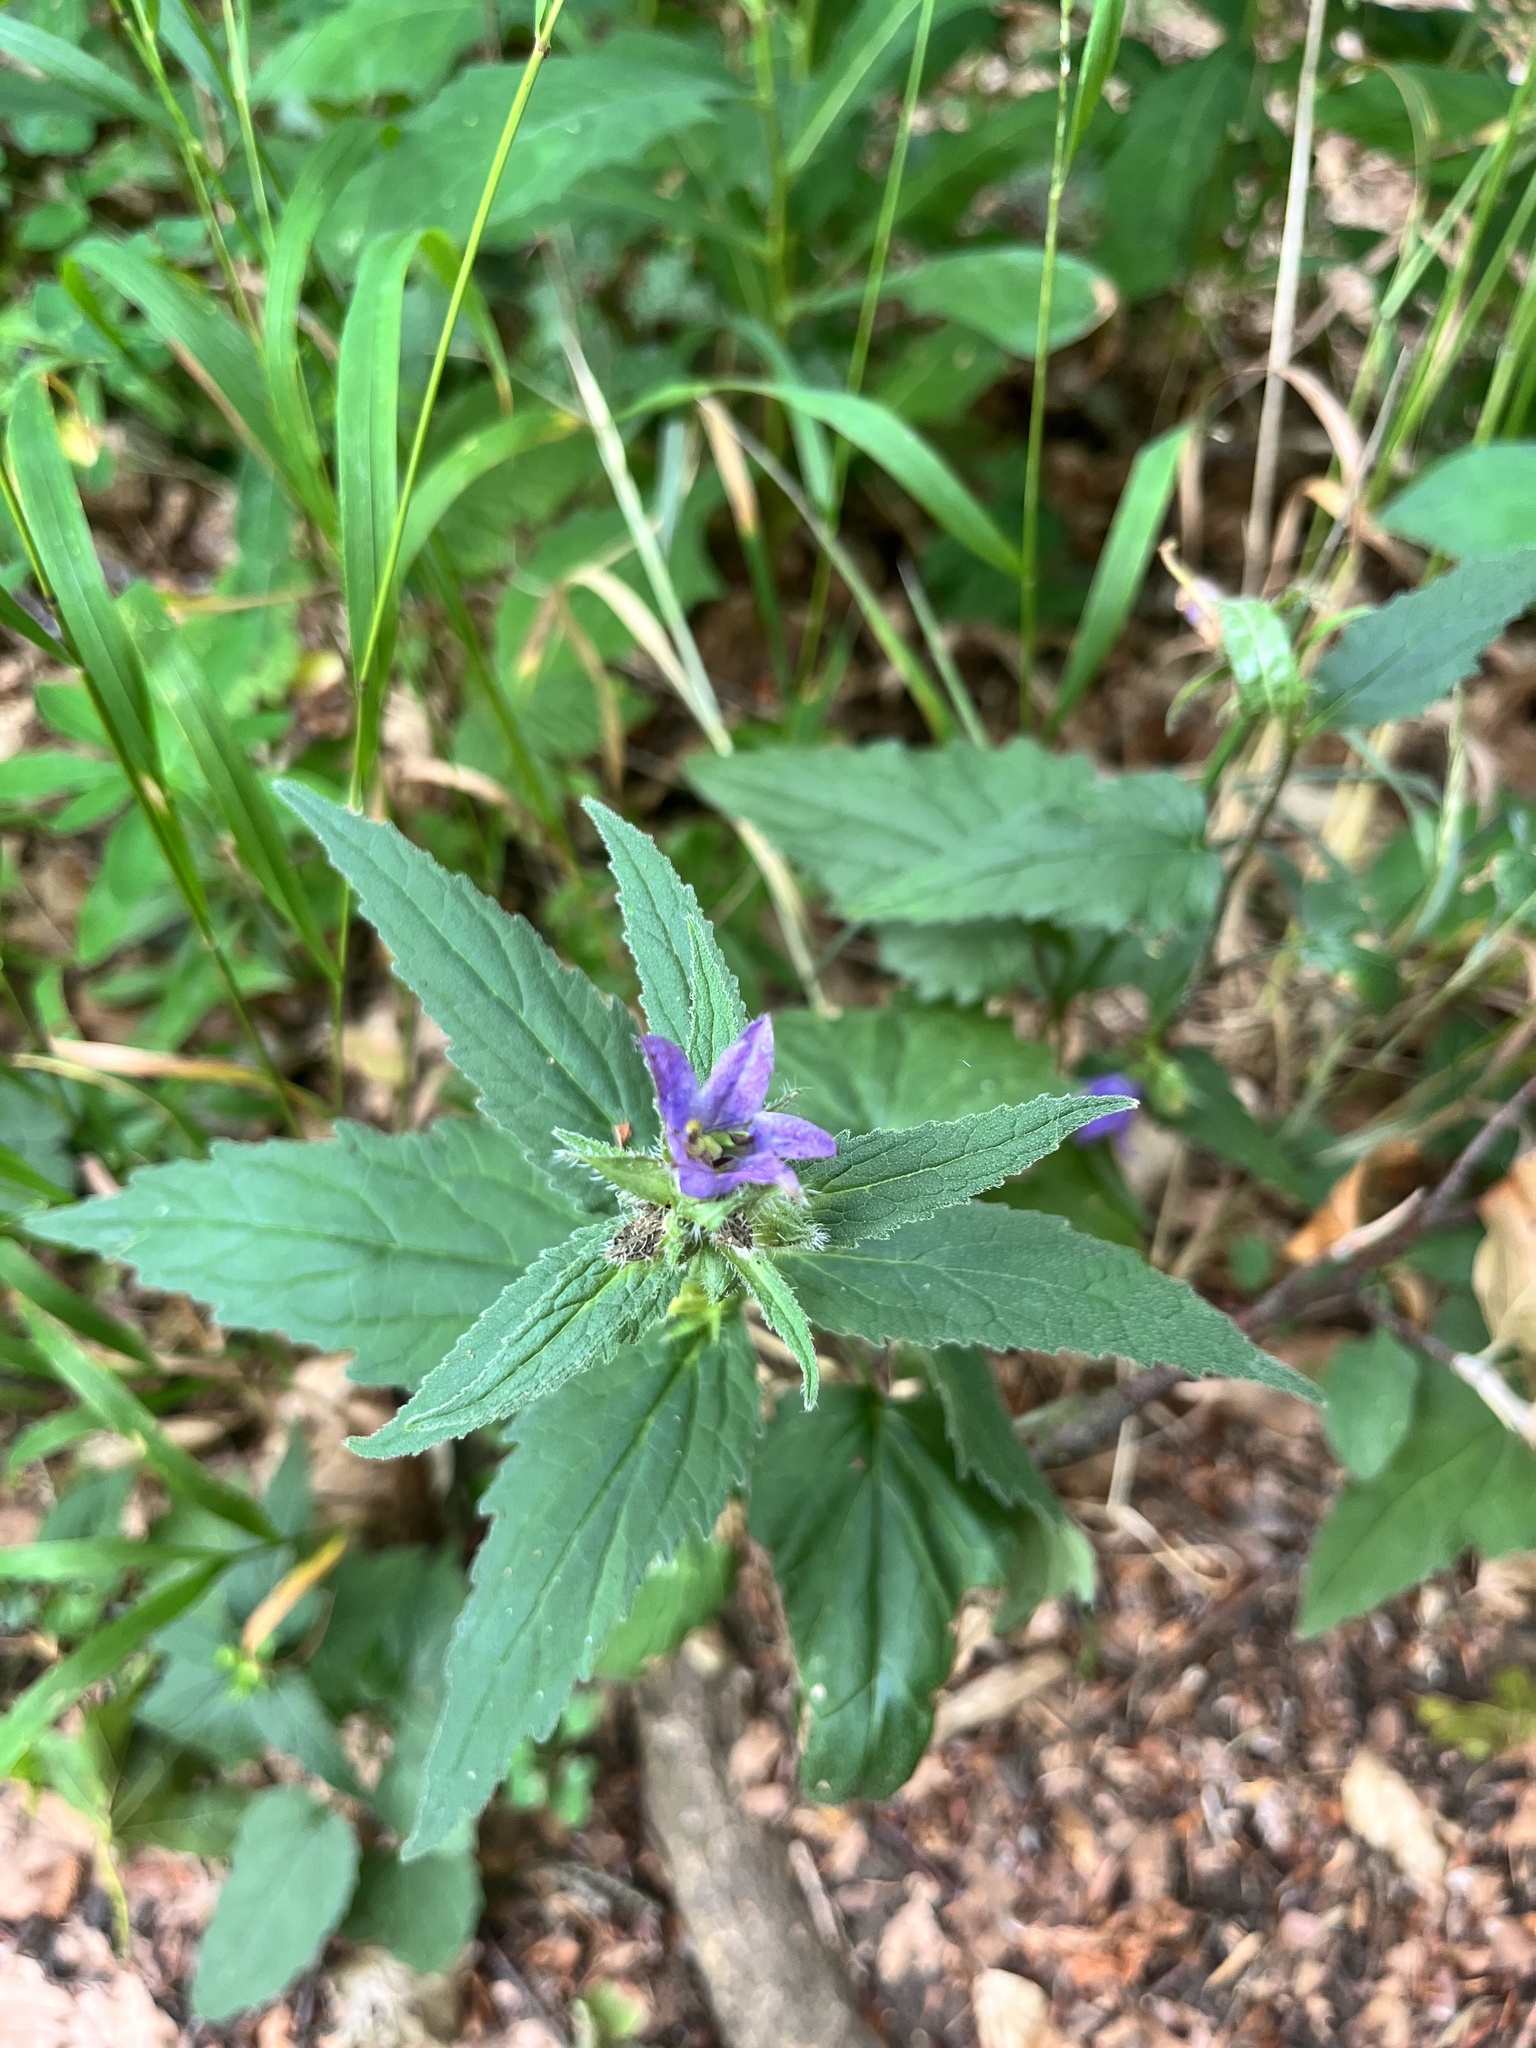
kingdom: Plantae
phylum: Tracheophyta
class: Magnoliopsida
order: Asterales
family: Campanulaceae
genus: Campanula
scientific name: Campanula trachelium
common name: Nettle-leaved bellflower
